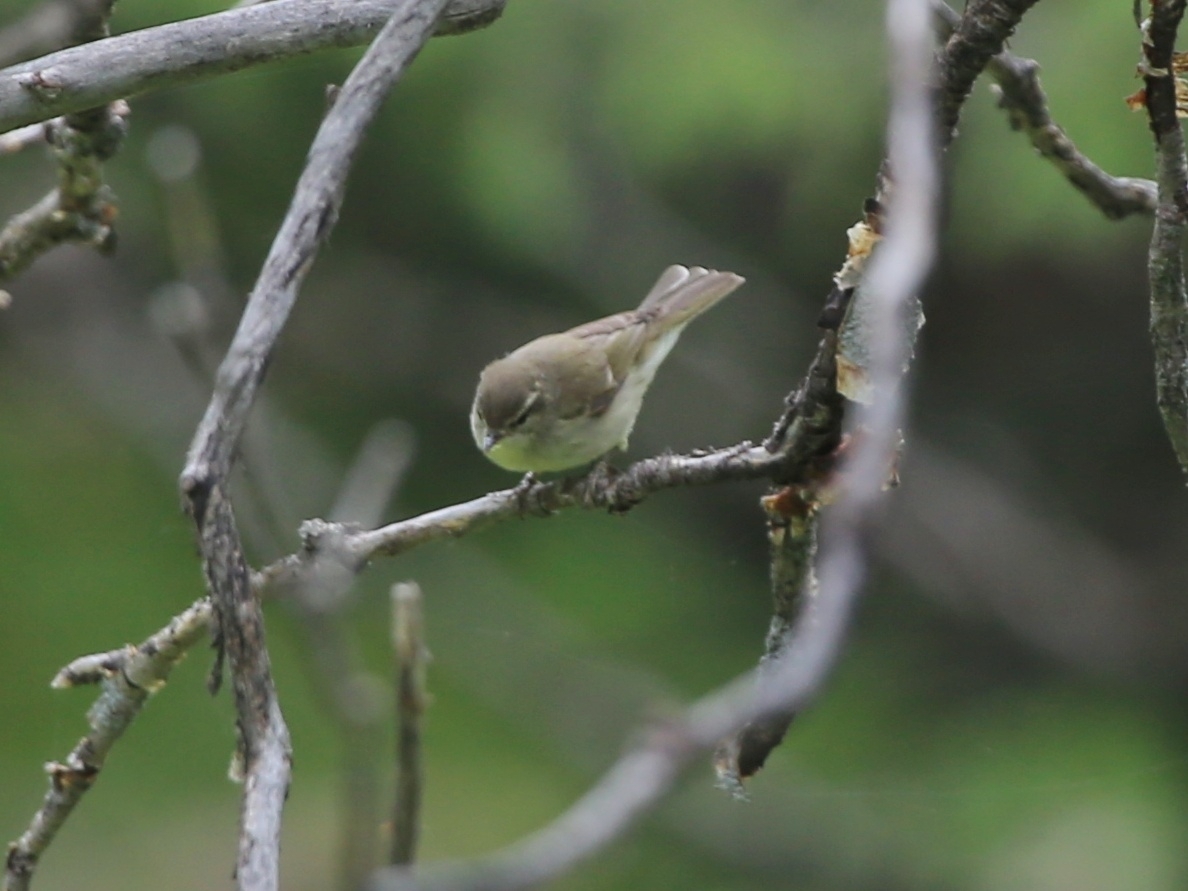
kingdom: Animalia
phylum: Chordata
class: Aves
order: Passeriformes
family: Phylloscopidae
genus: Phylloscopus
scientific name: Phylloscopus trochiloides
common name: Greenish warbler
